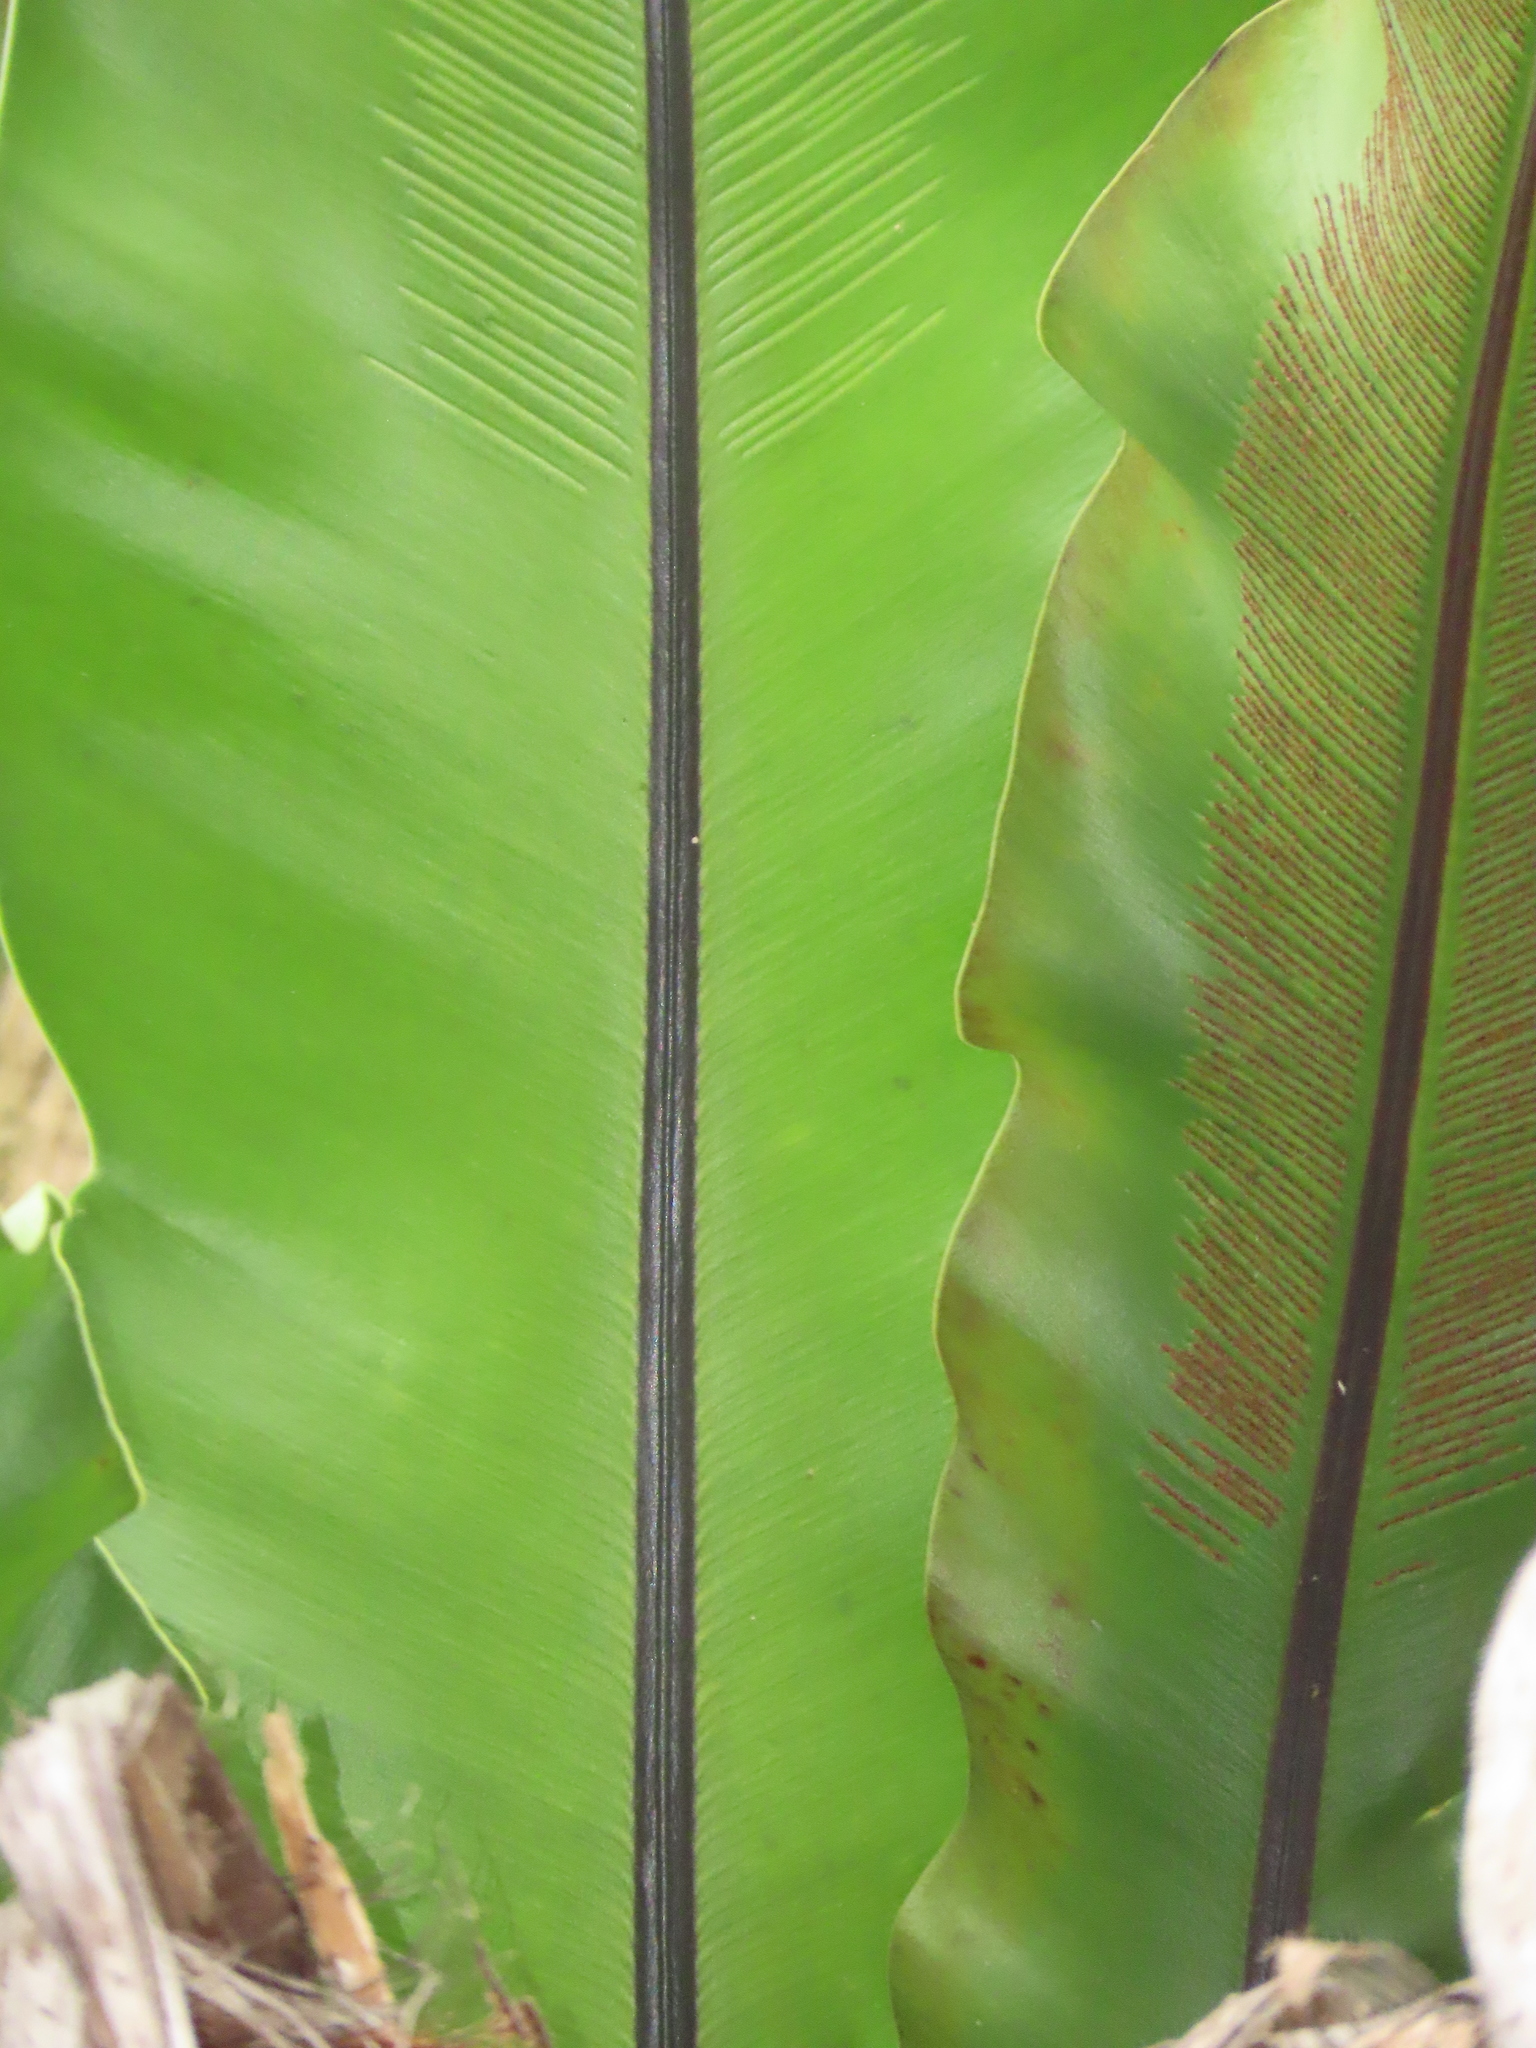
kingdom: Plantae
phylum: Tracheophyta
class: Polypodiopsida
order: Polypodiales
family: Aspleniaceae
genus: Asplenium
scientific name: Asplenium setoi
